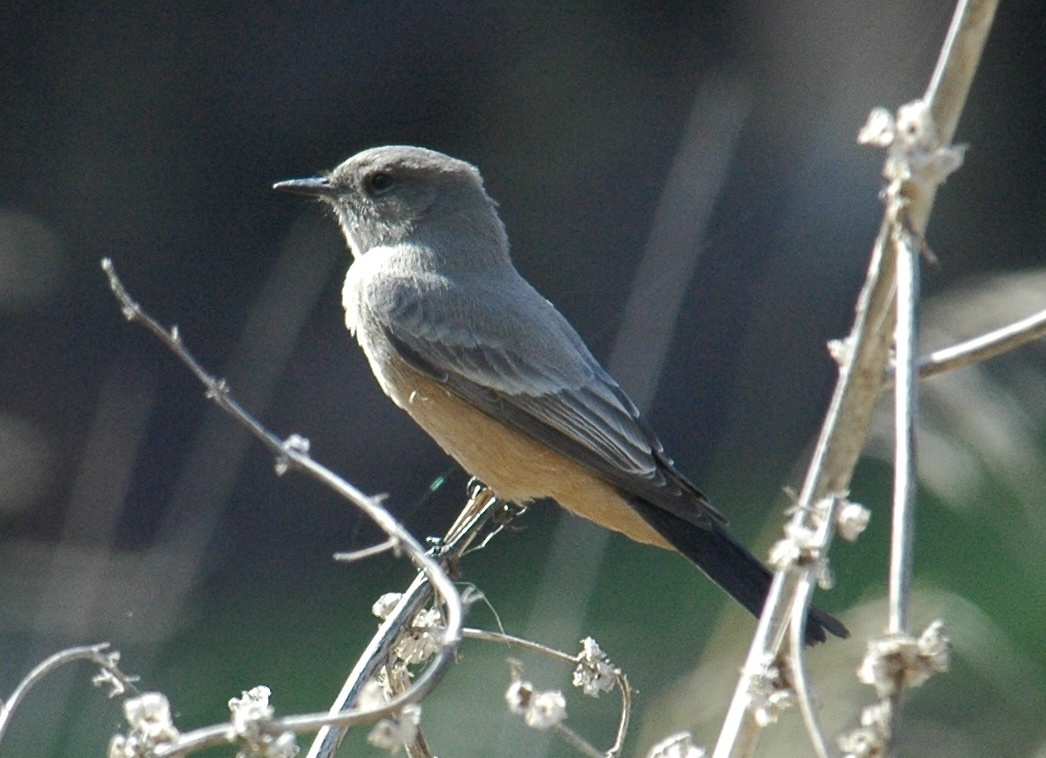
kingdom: Animalia
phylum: Chordata
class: Aves
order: Passeriformes
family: Tyrannidae
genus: Sayornis
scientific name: Sayornis saya
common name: Say's phoebe
